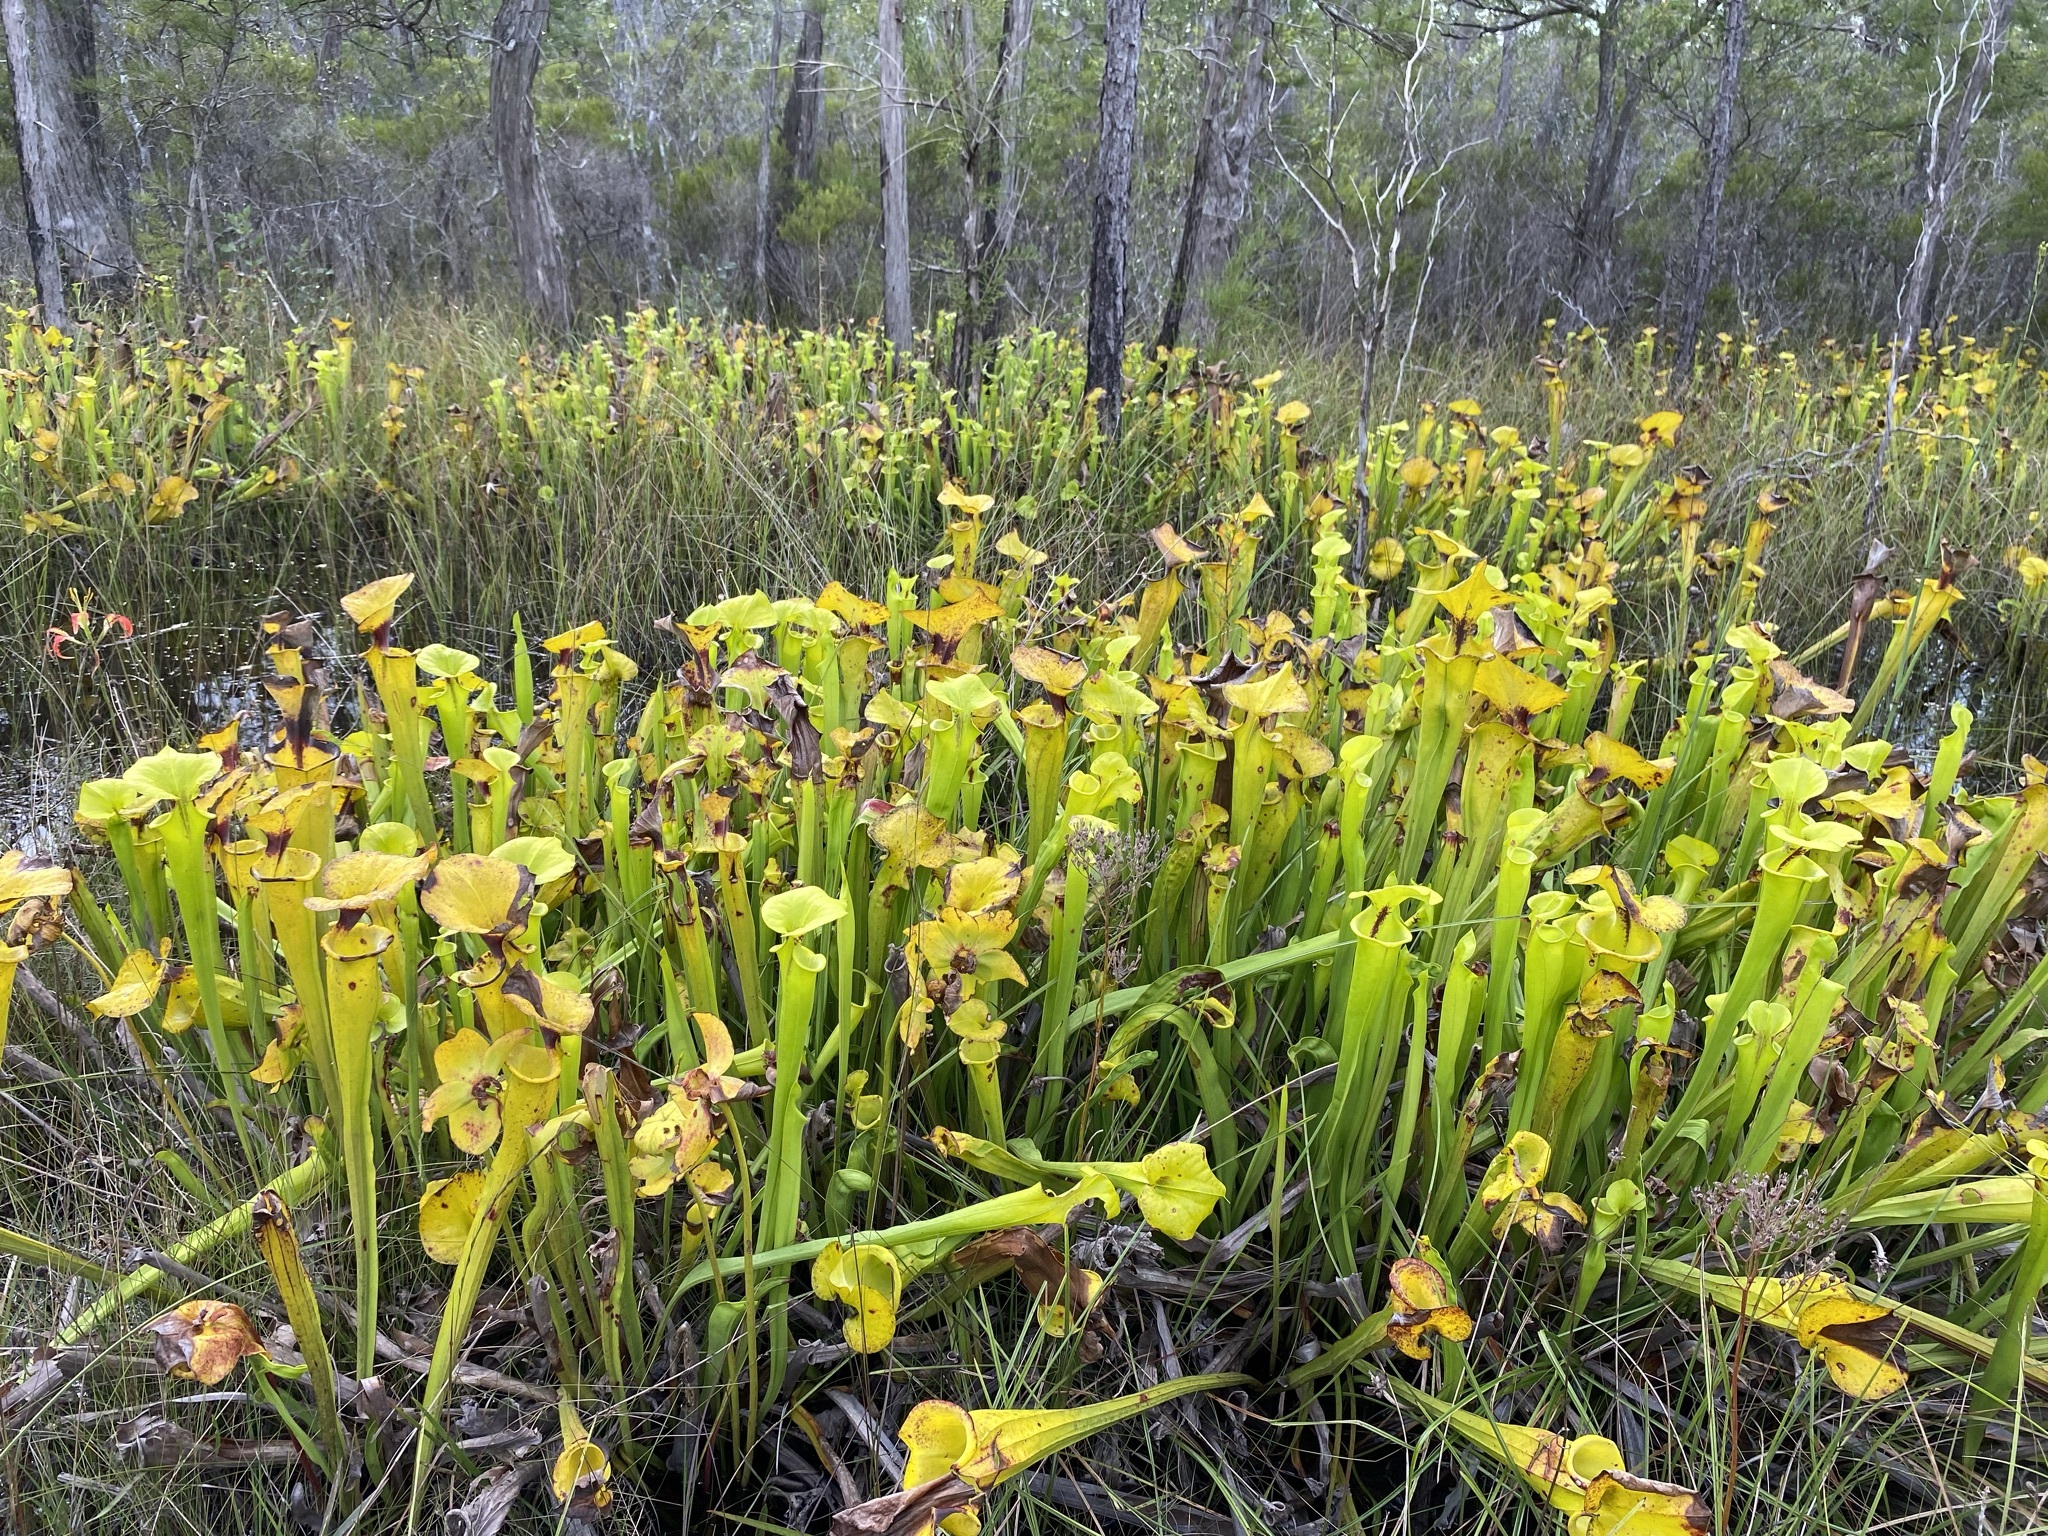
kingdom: Plantae
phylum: Tracheophyta
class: Magnoliopsida
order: Ericales
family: Sarraceniaceae
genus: Sarracenia
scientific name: Sarracenia flava
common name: Trumpets
